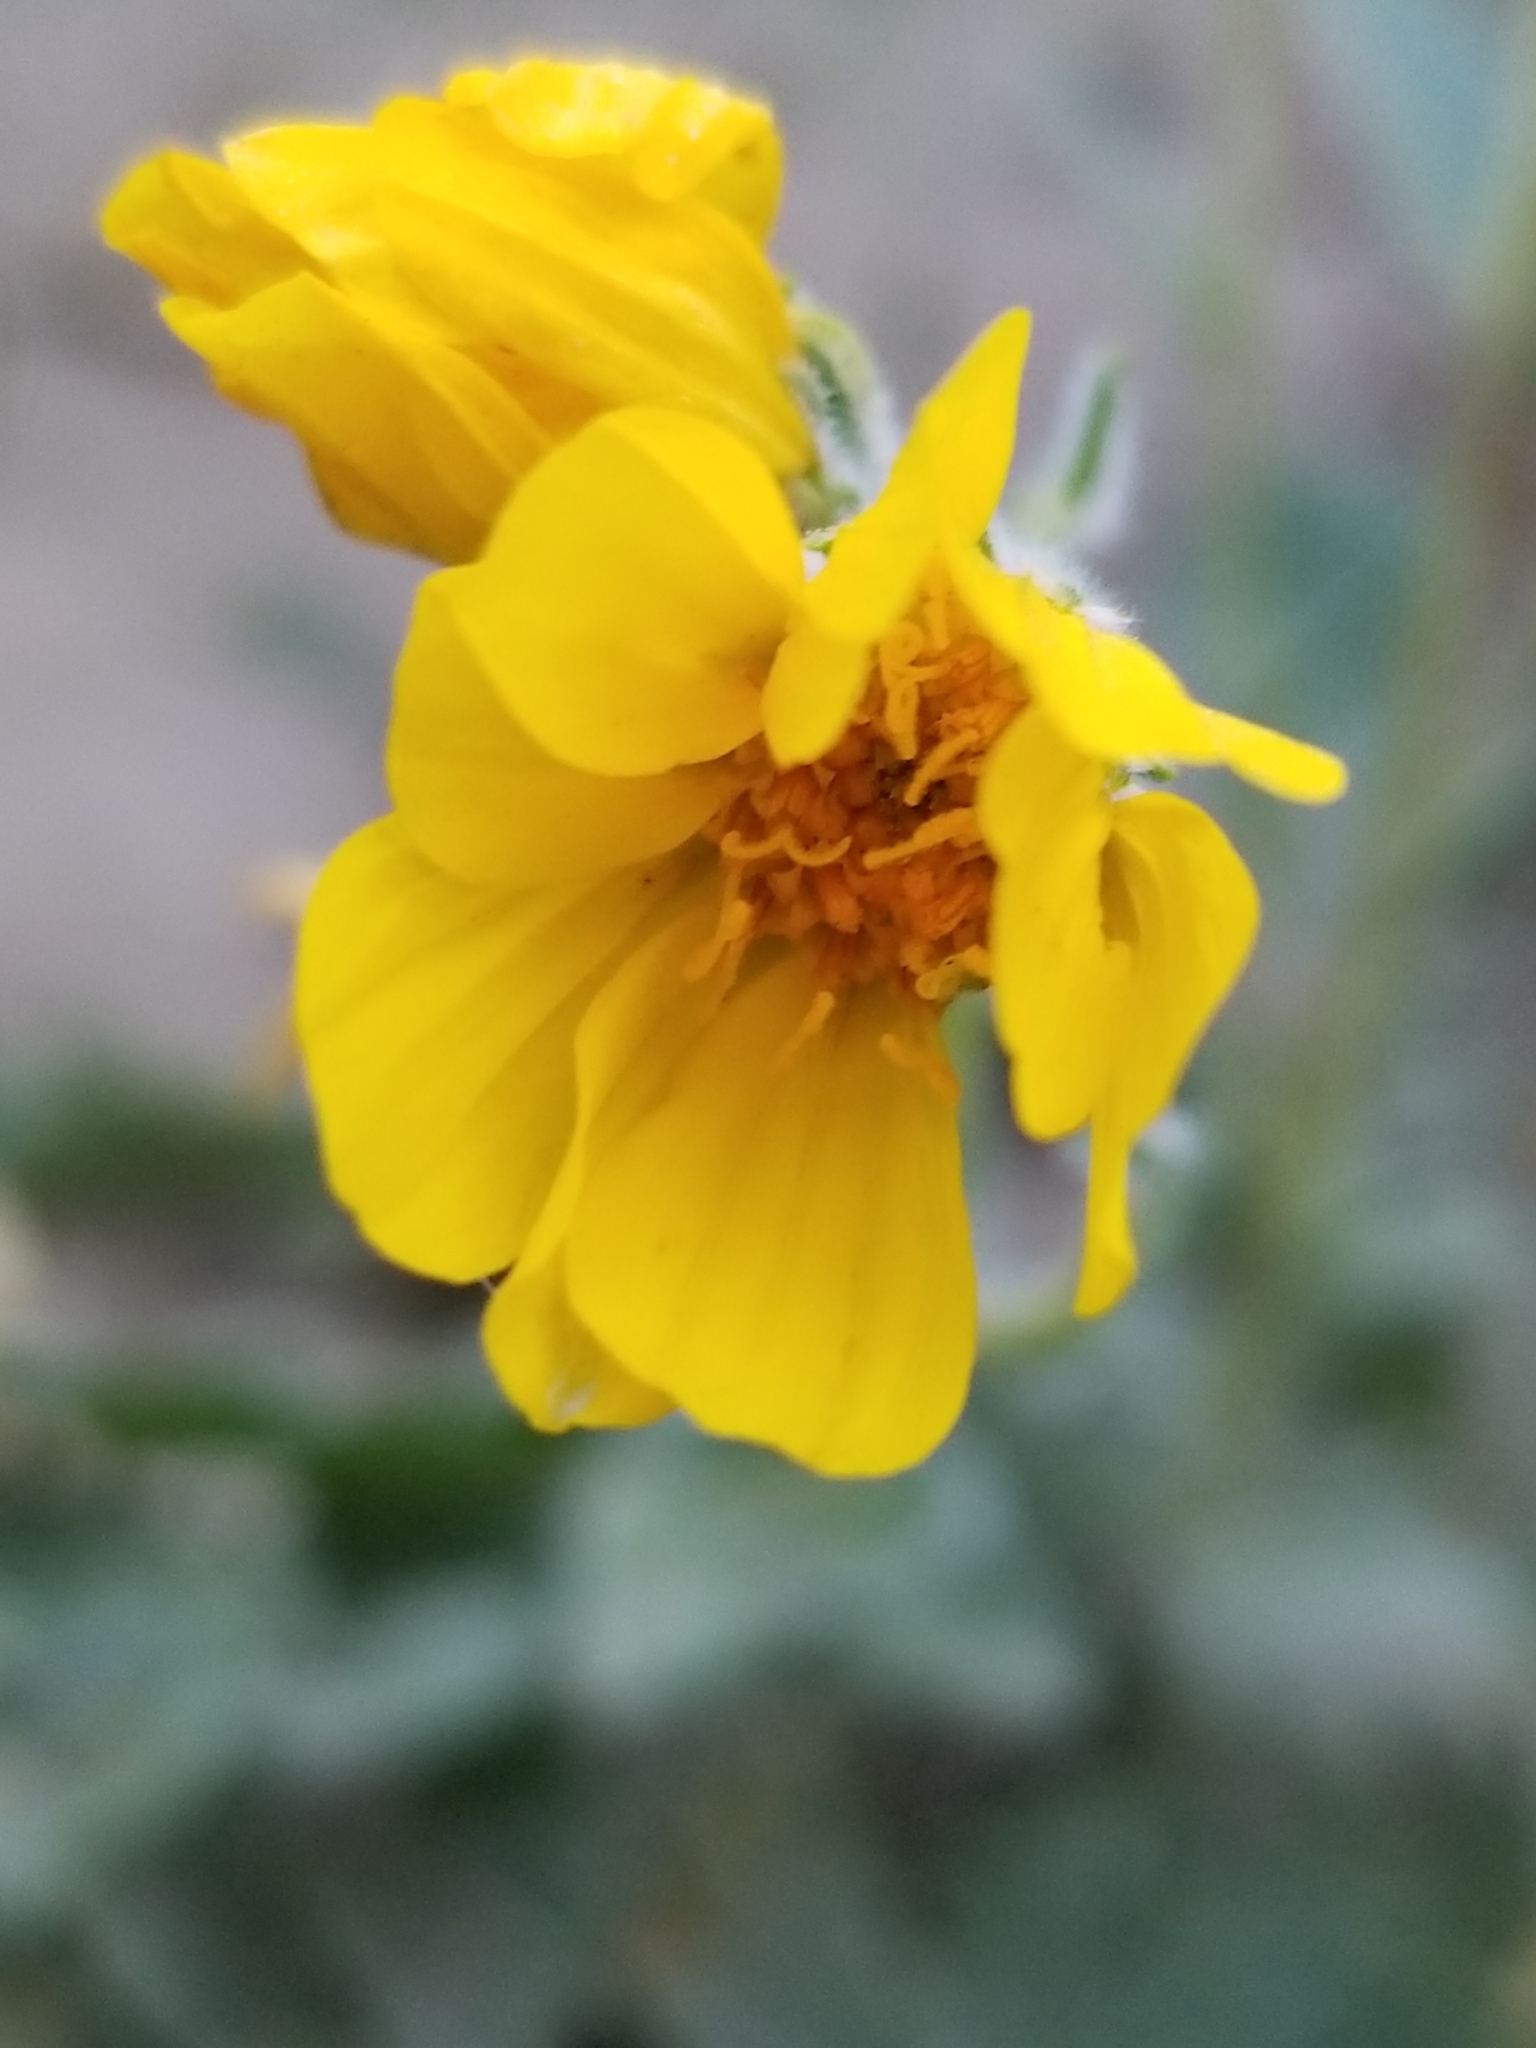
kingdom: Plantae
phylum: Tracheophyta
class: Magnoliopsida
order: Asterales
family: Asteraceae
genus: Geraea
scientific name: Geraea canescens
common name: Desert-gold
